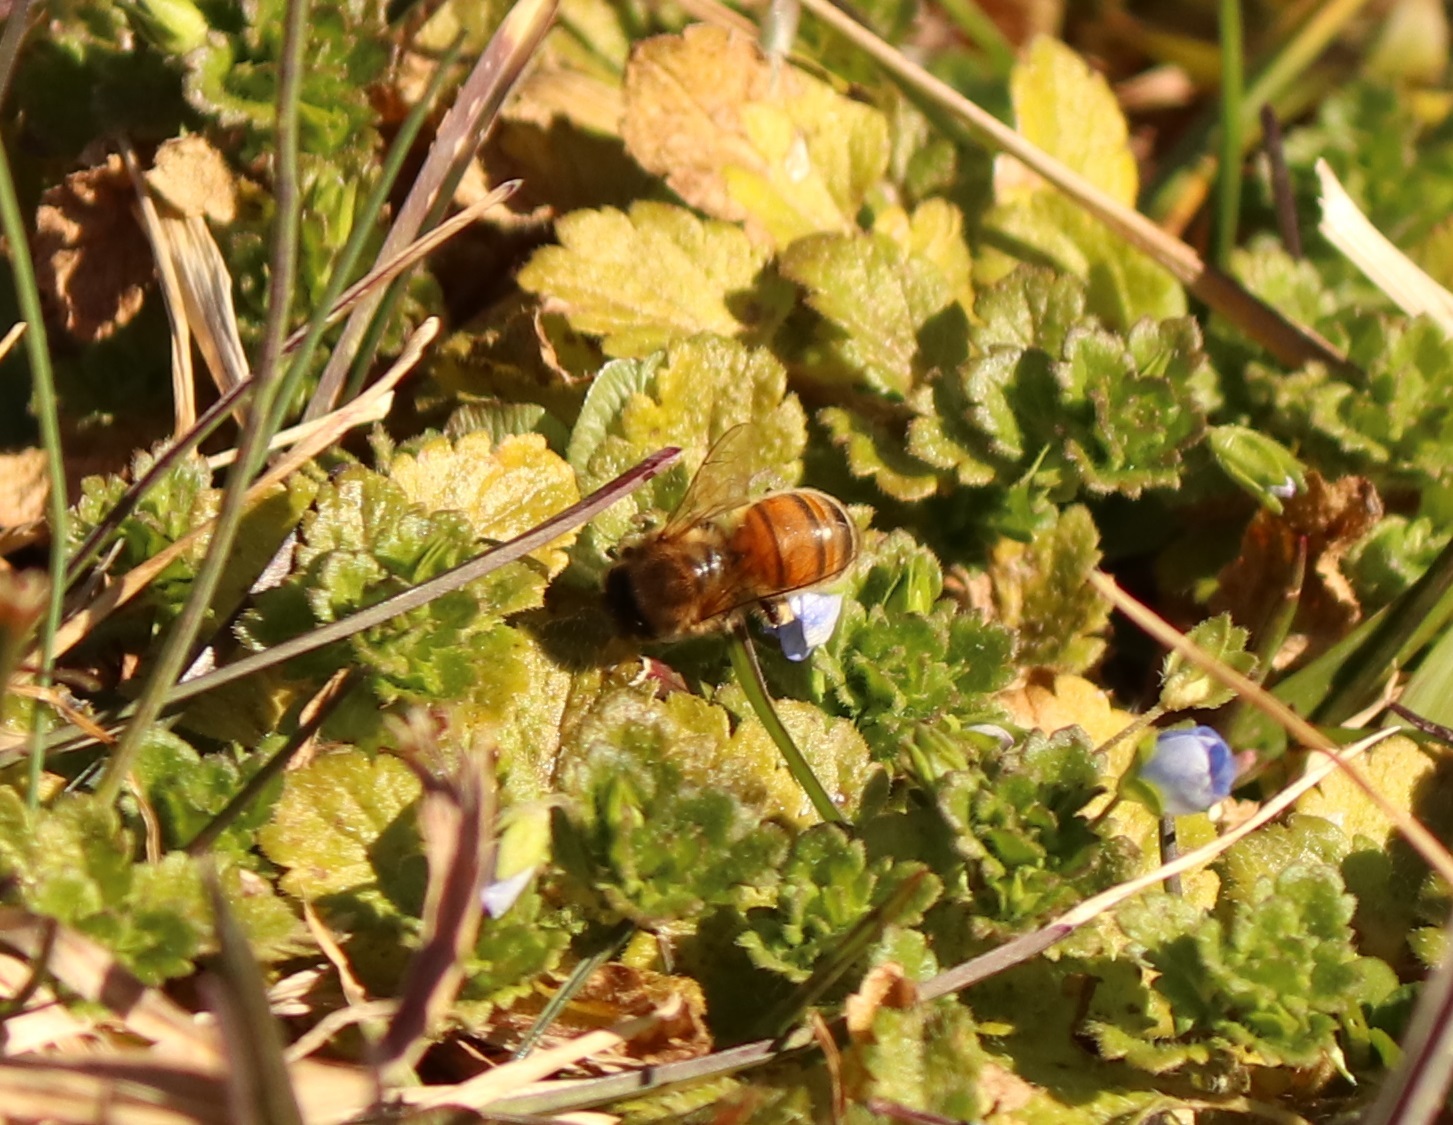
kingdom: Animalia
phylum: Arthropoda
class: Insecta
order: Hymenoptera
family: Apidae
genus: Apis
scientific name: Apis mellifera
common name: Honey bee
